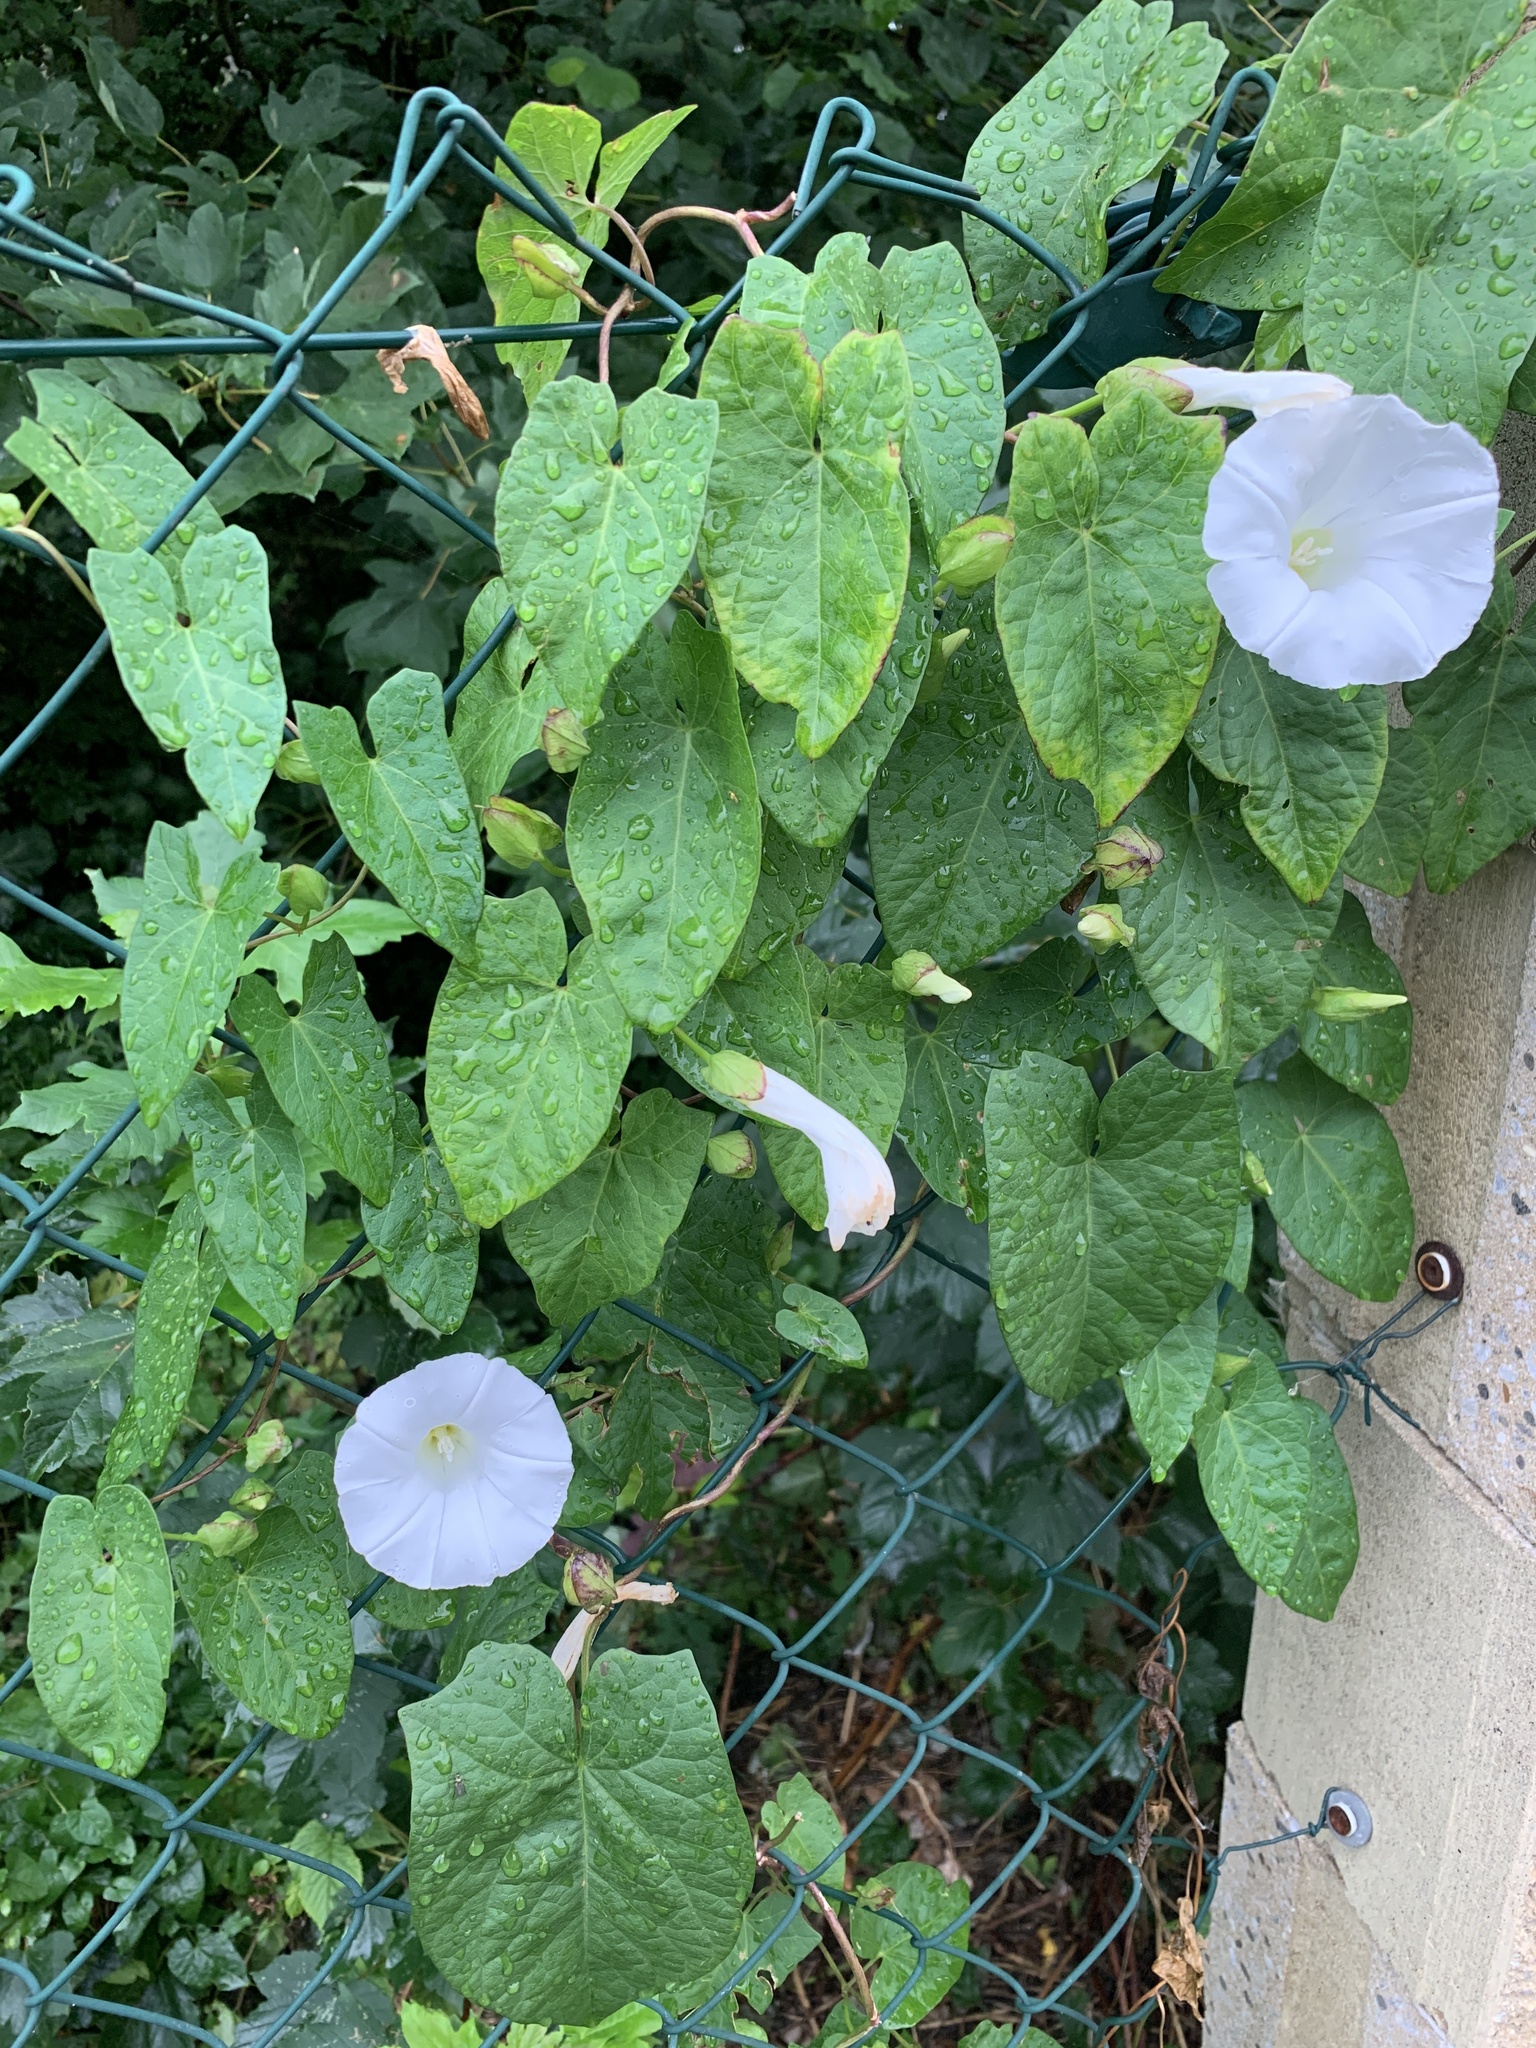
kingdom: Plantae
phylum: Tracheophyta
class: Magnoliopsida
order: Solanales
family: Convolvulaceae
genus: Calystegia
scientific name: Calystegia sepium
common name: Hedge bindweed
